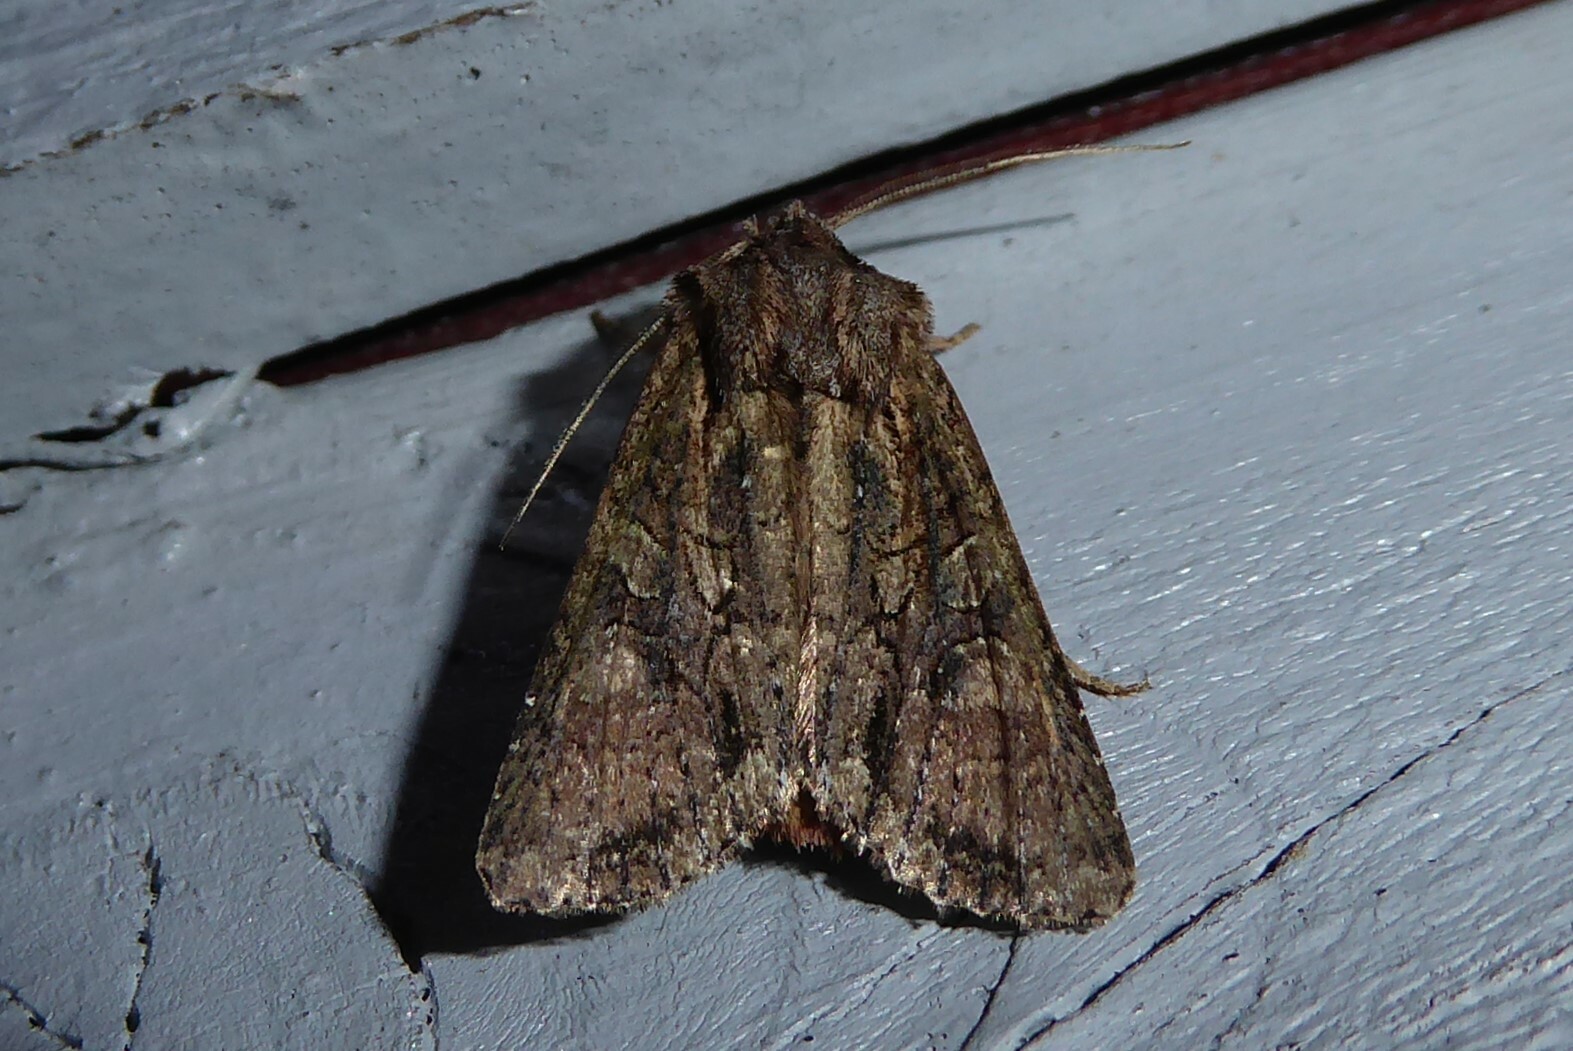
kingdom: Animalia
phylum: Arthropoda
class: Insecta
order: Lepidoptera
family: Noctuidae
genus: Ichneutica
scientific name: Ichneutica mutans
